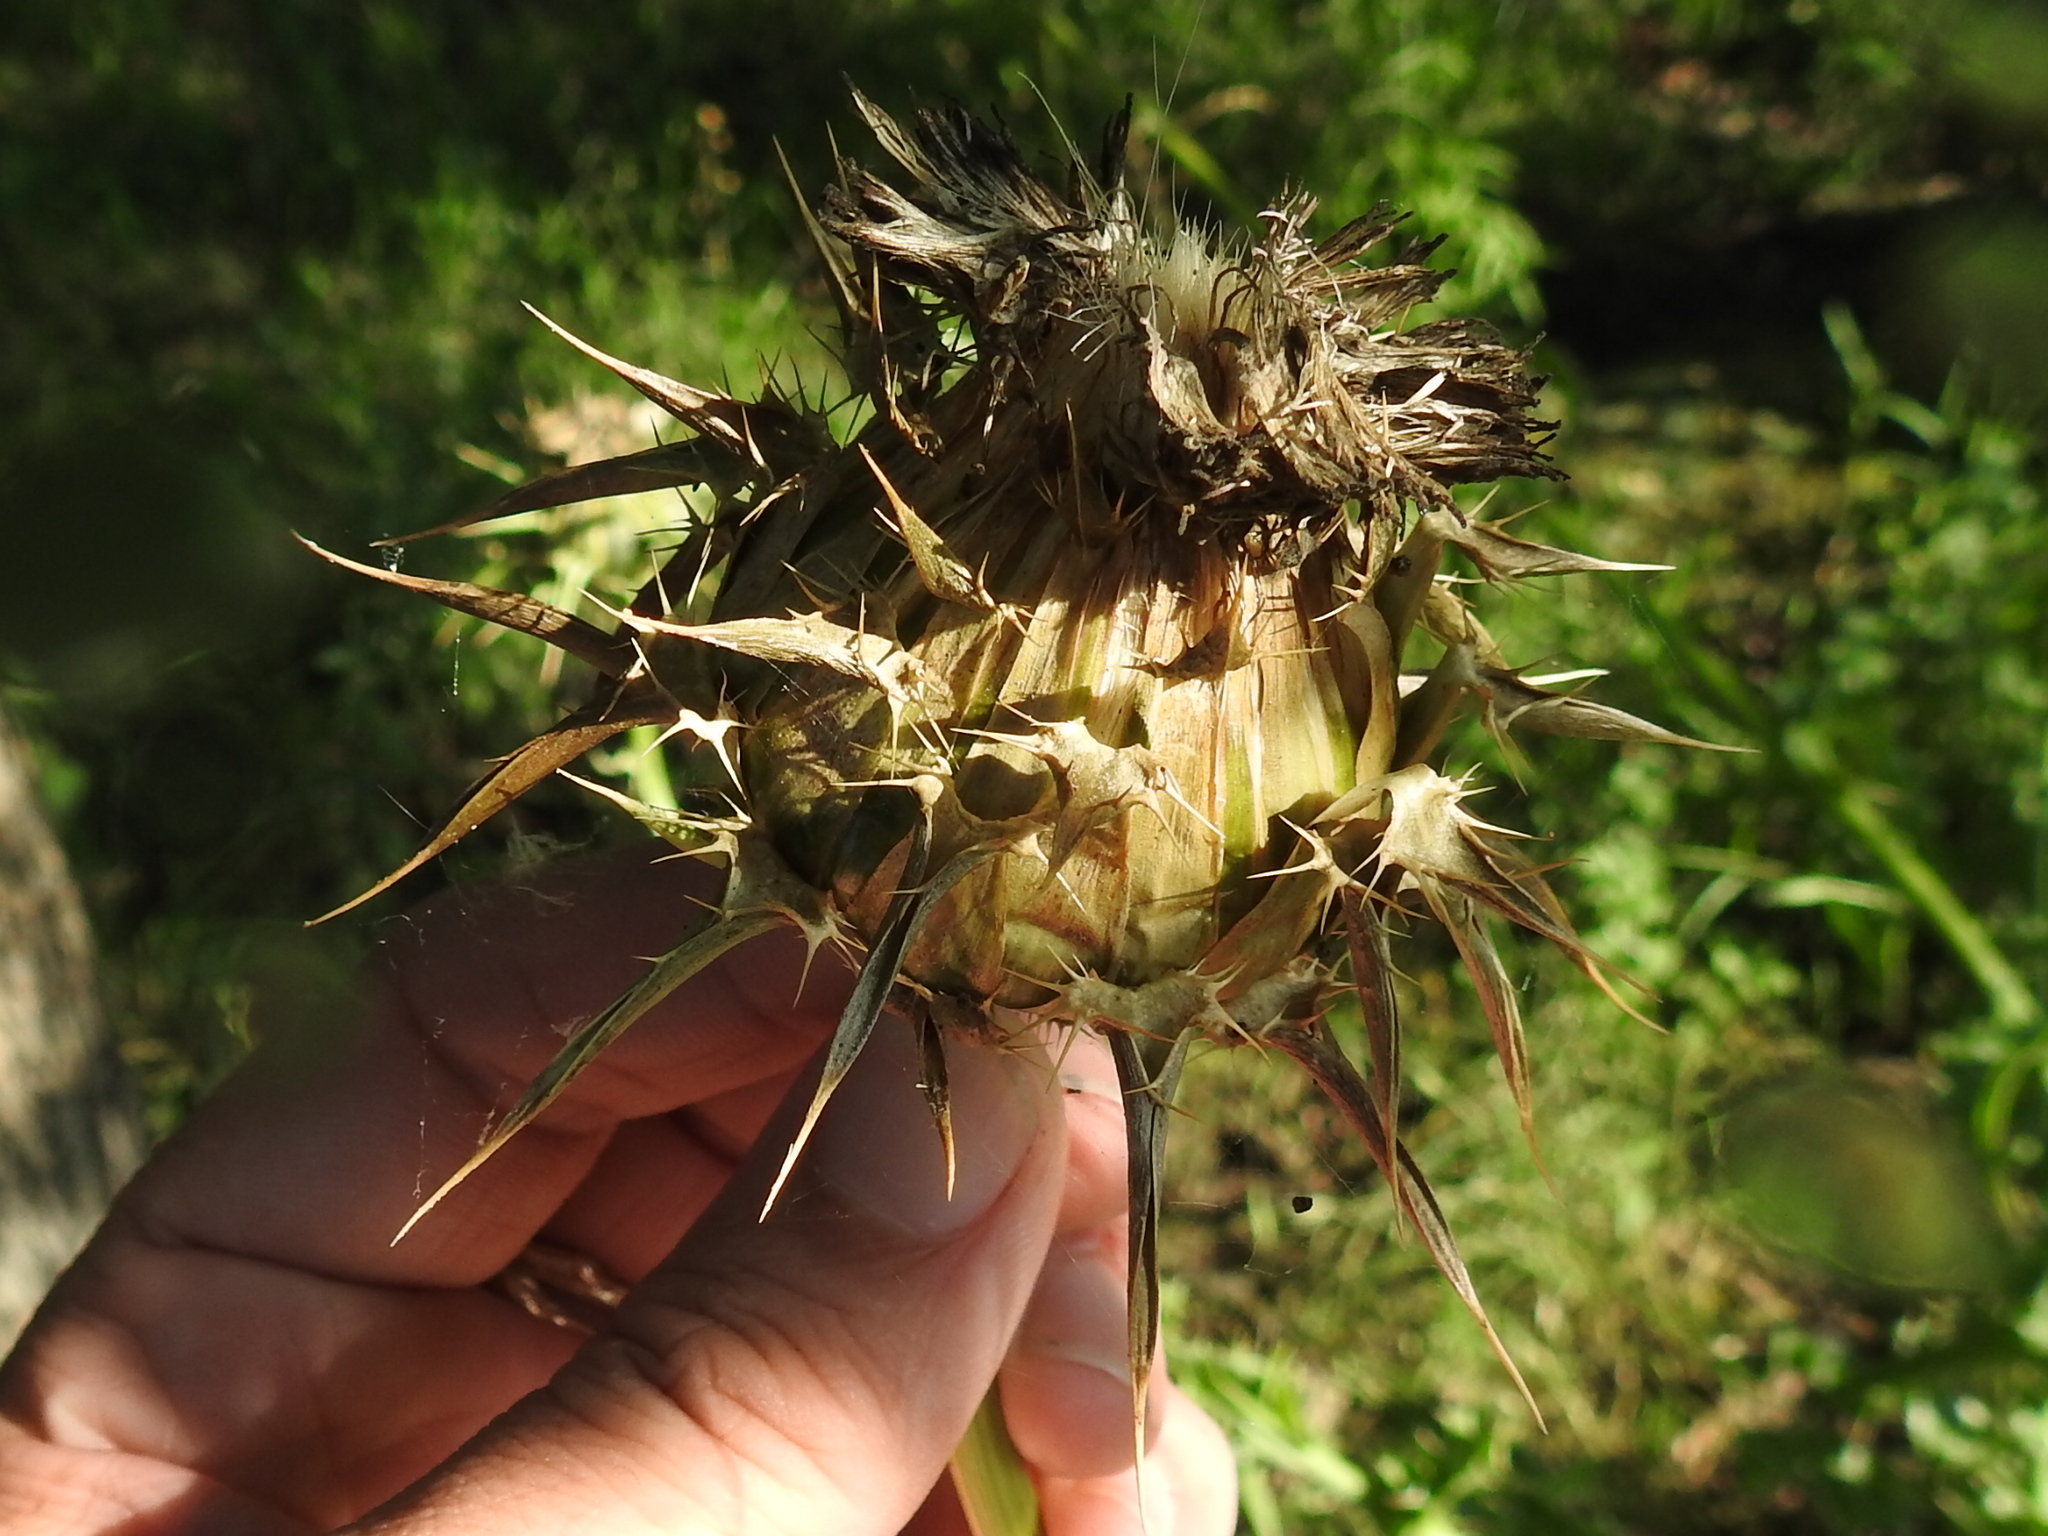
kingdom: Plantae
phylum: Tracheophyta
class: Magnoliopsida
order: Asterales
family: Asteraceae
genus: Silybum
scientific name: Silybum marianum
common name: Milk thistle
